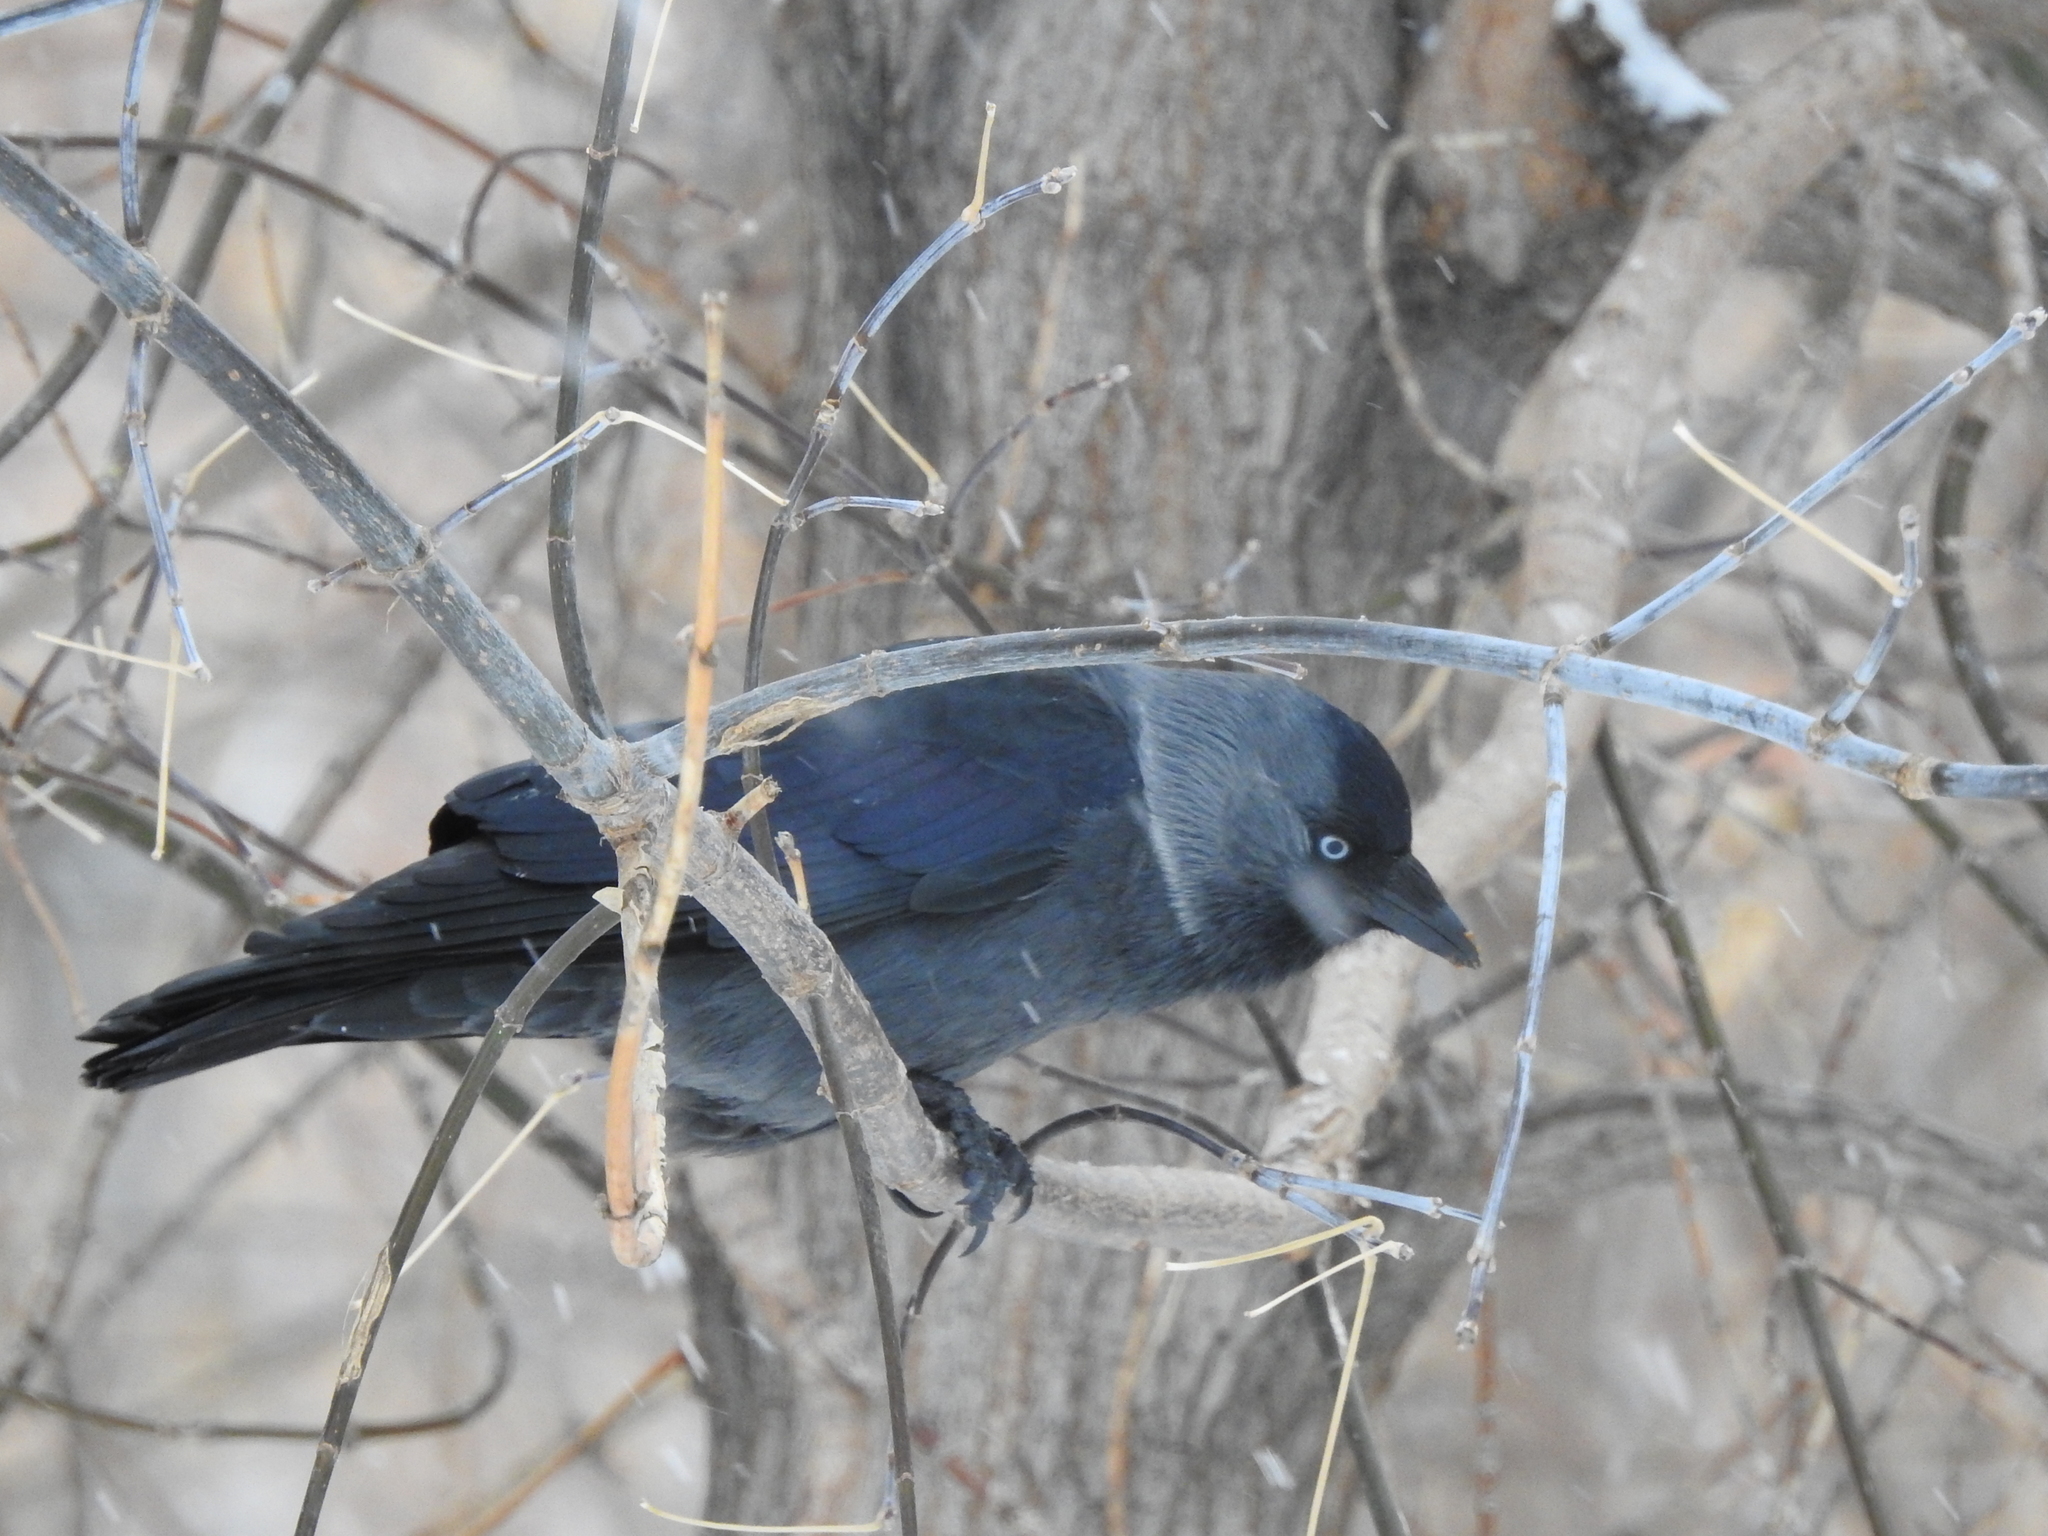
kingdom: Animalia
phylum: Chordata
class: Aves
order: Passeriformes
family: Corvidae
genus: Coloeus
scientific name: Coloeus monedula
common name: Western jackdaw
